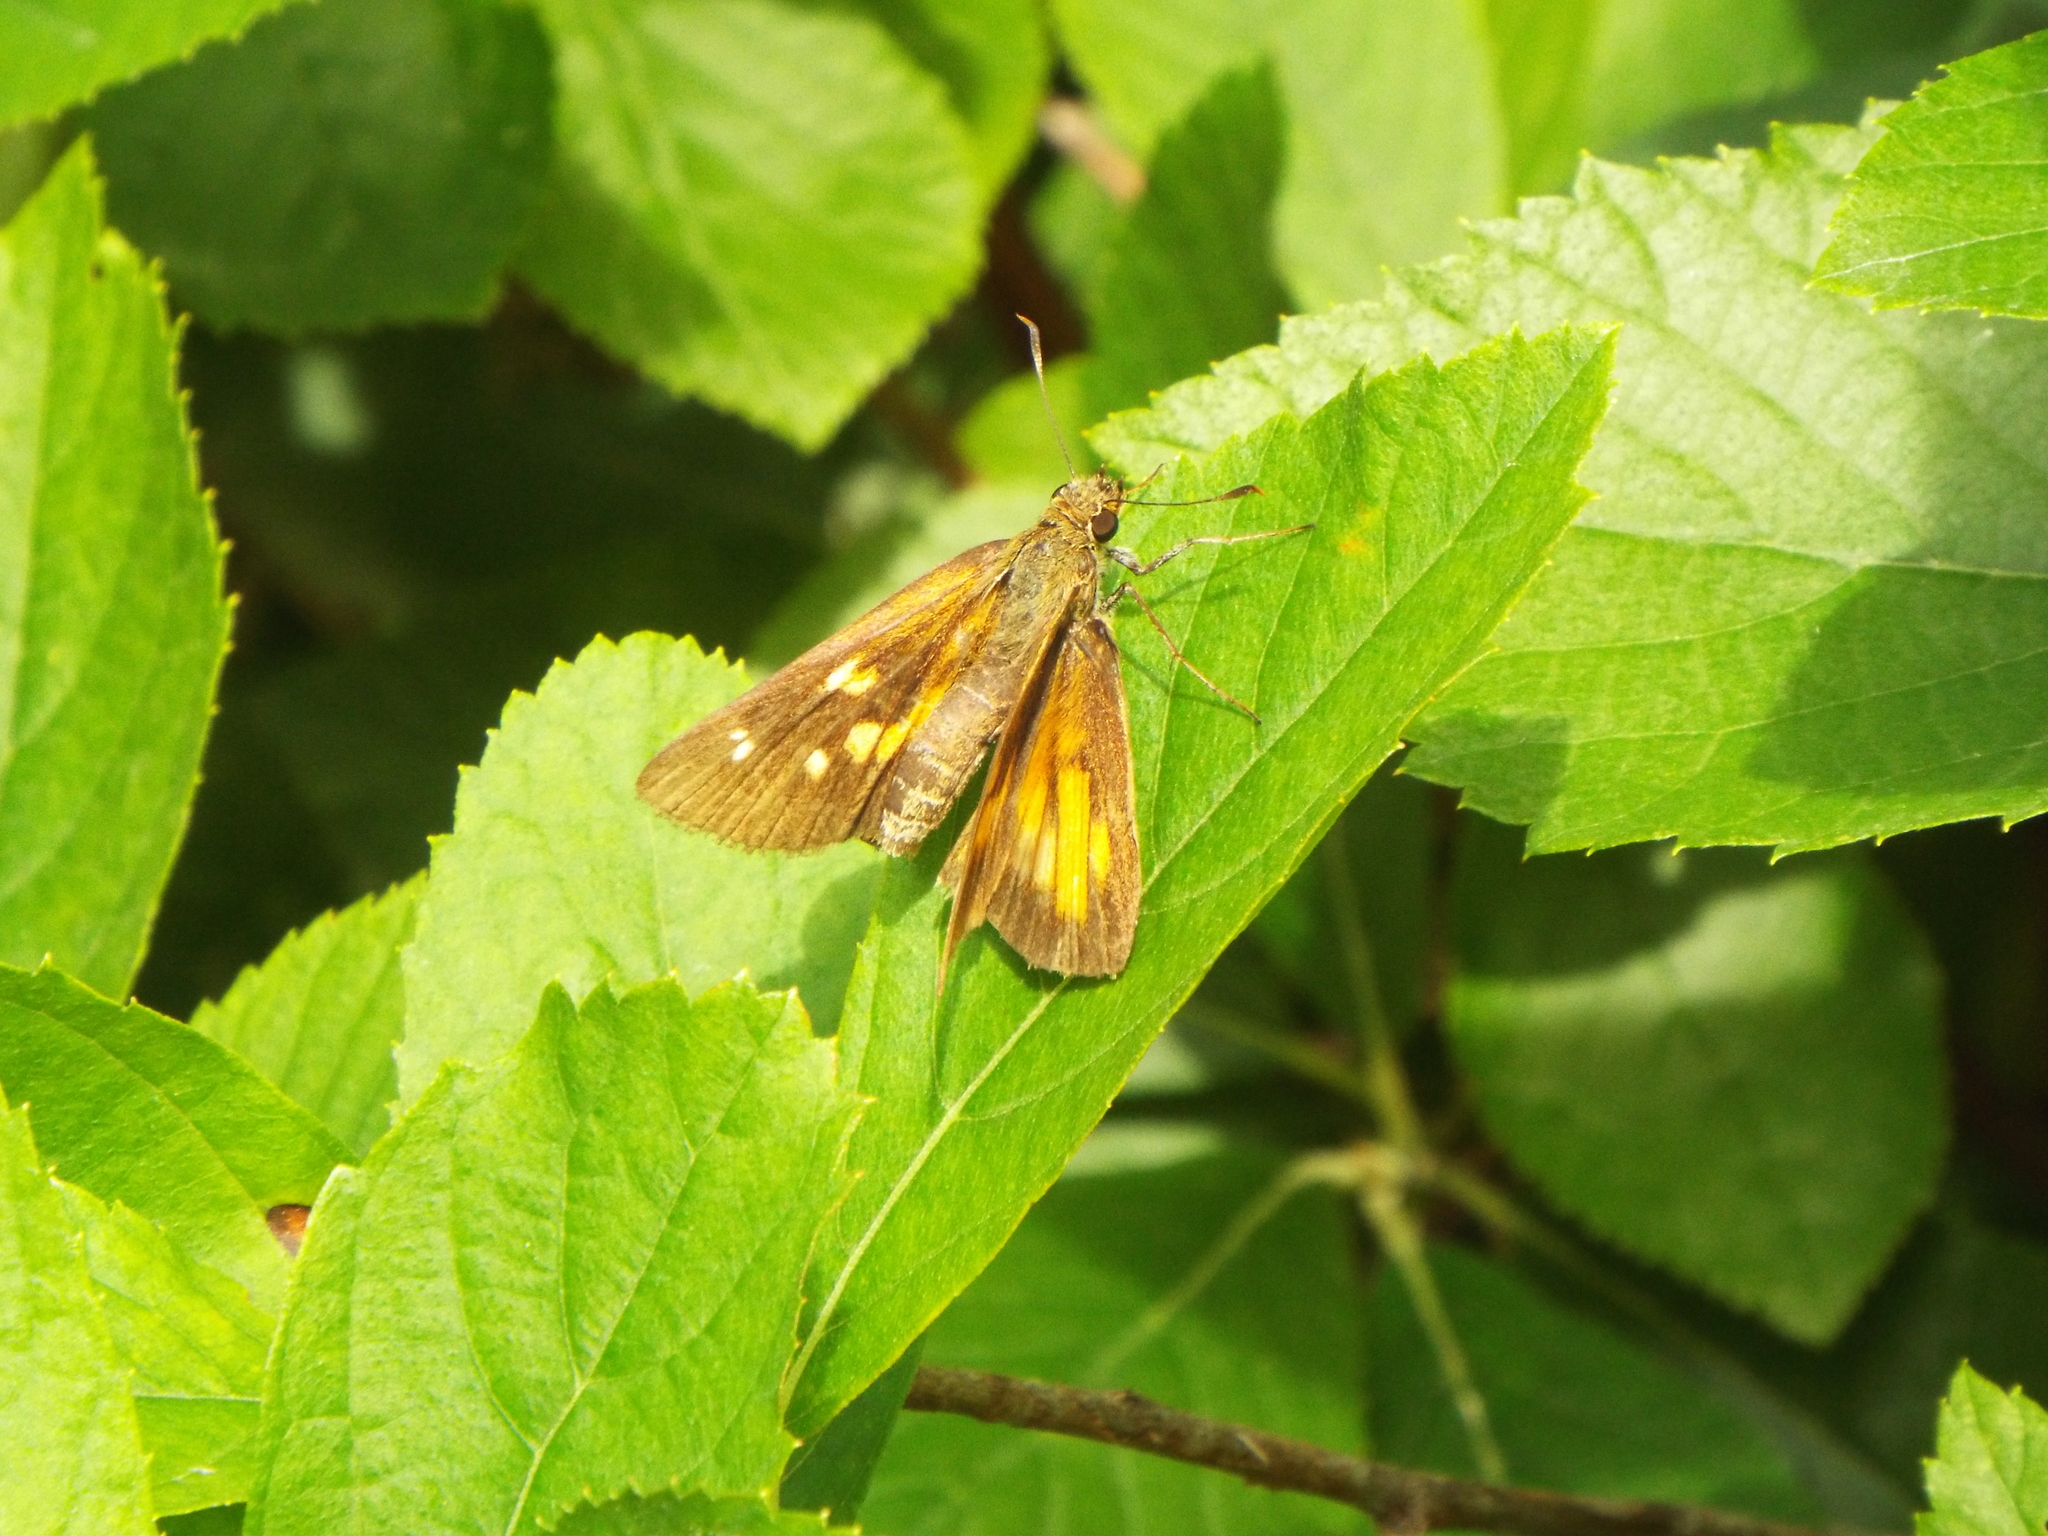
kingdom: Animalia
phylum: Arthropoda
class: Insecta
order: Lepidoptera
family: Hesperiidae
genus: Poanes
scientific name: Poanes viator
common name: Broad-winged skipper
